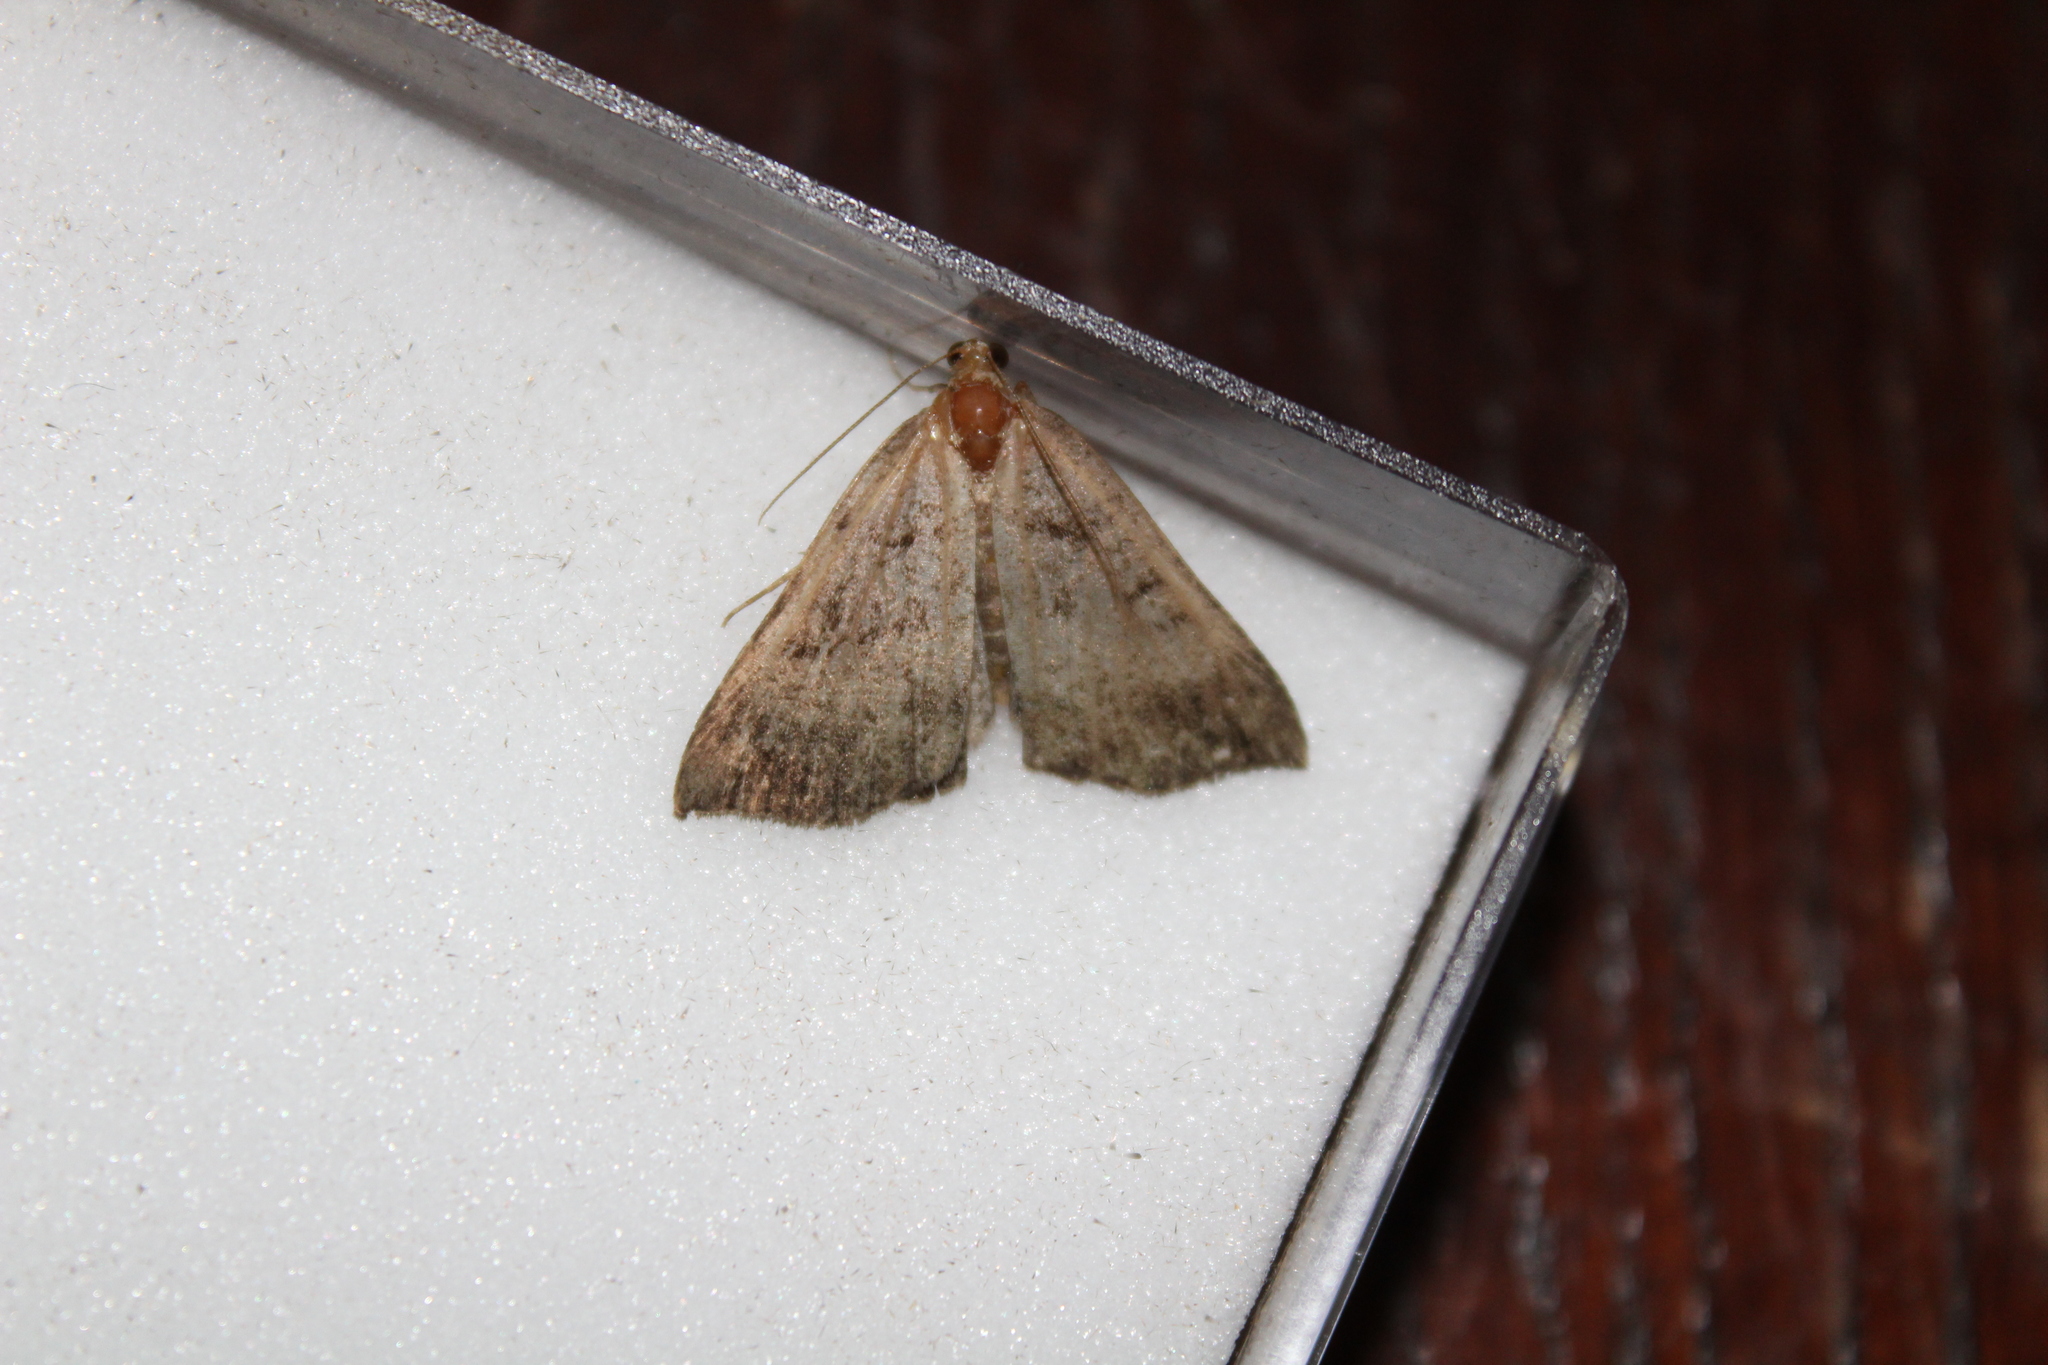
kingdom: Animalia
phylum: Arthropoda
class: Insecta
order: Lepidoptera
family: Erebidae
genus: Hypena
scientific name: Hypena proboscidalis
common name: Snout
